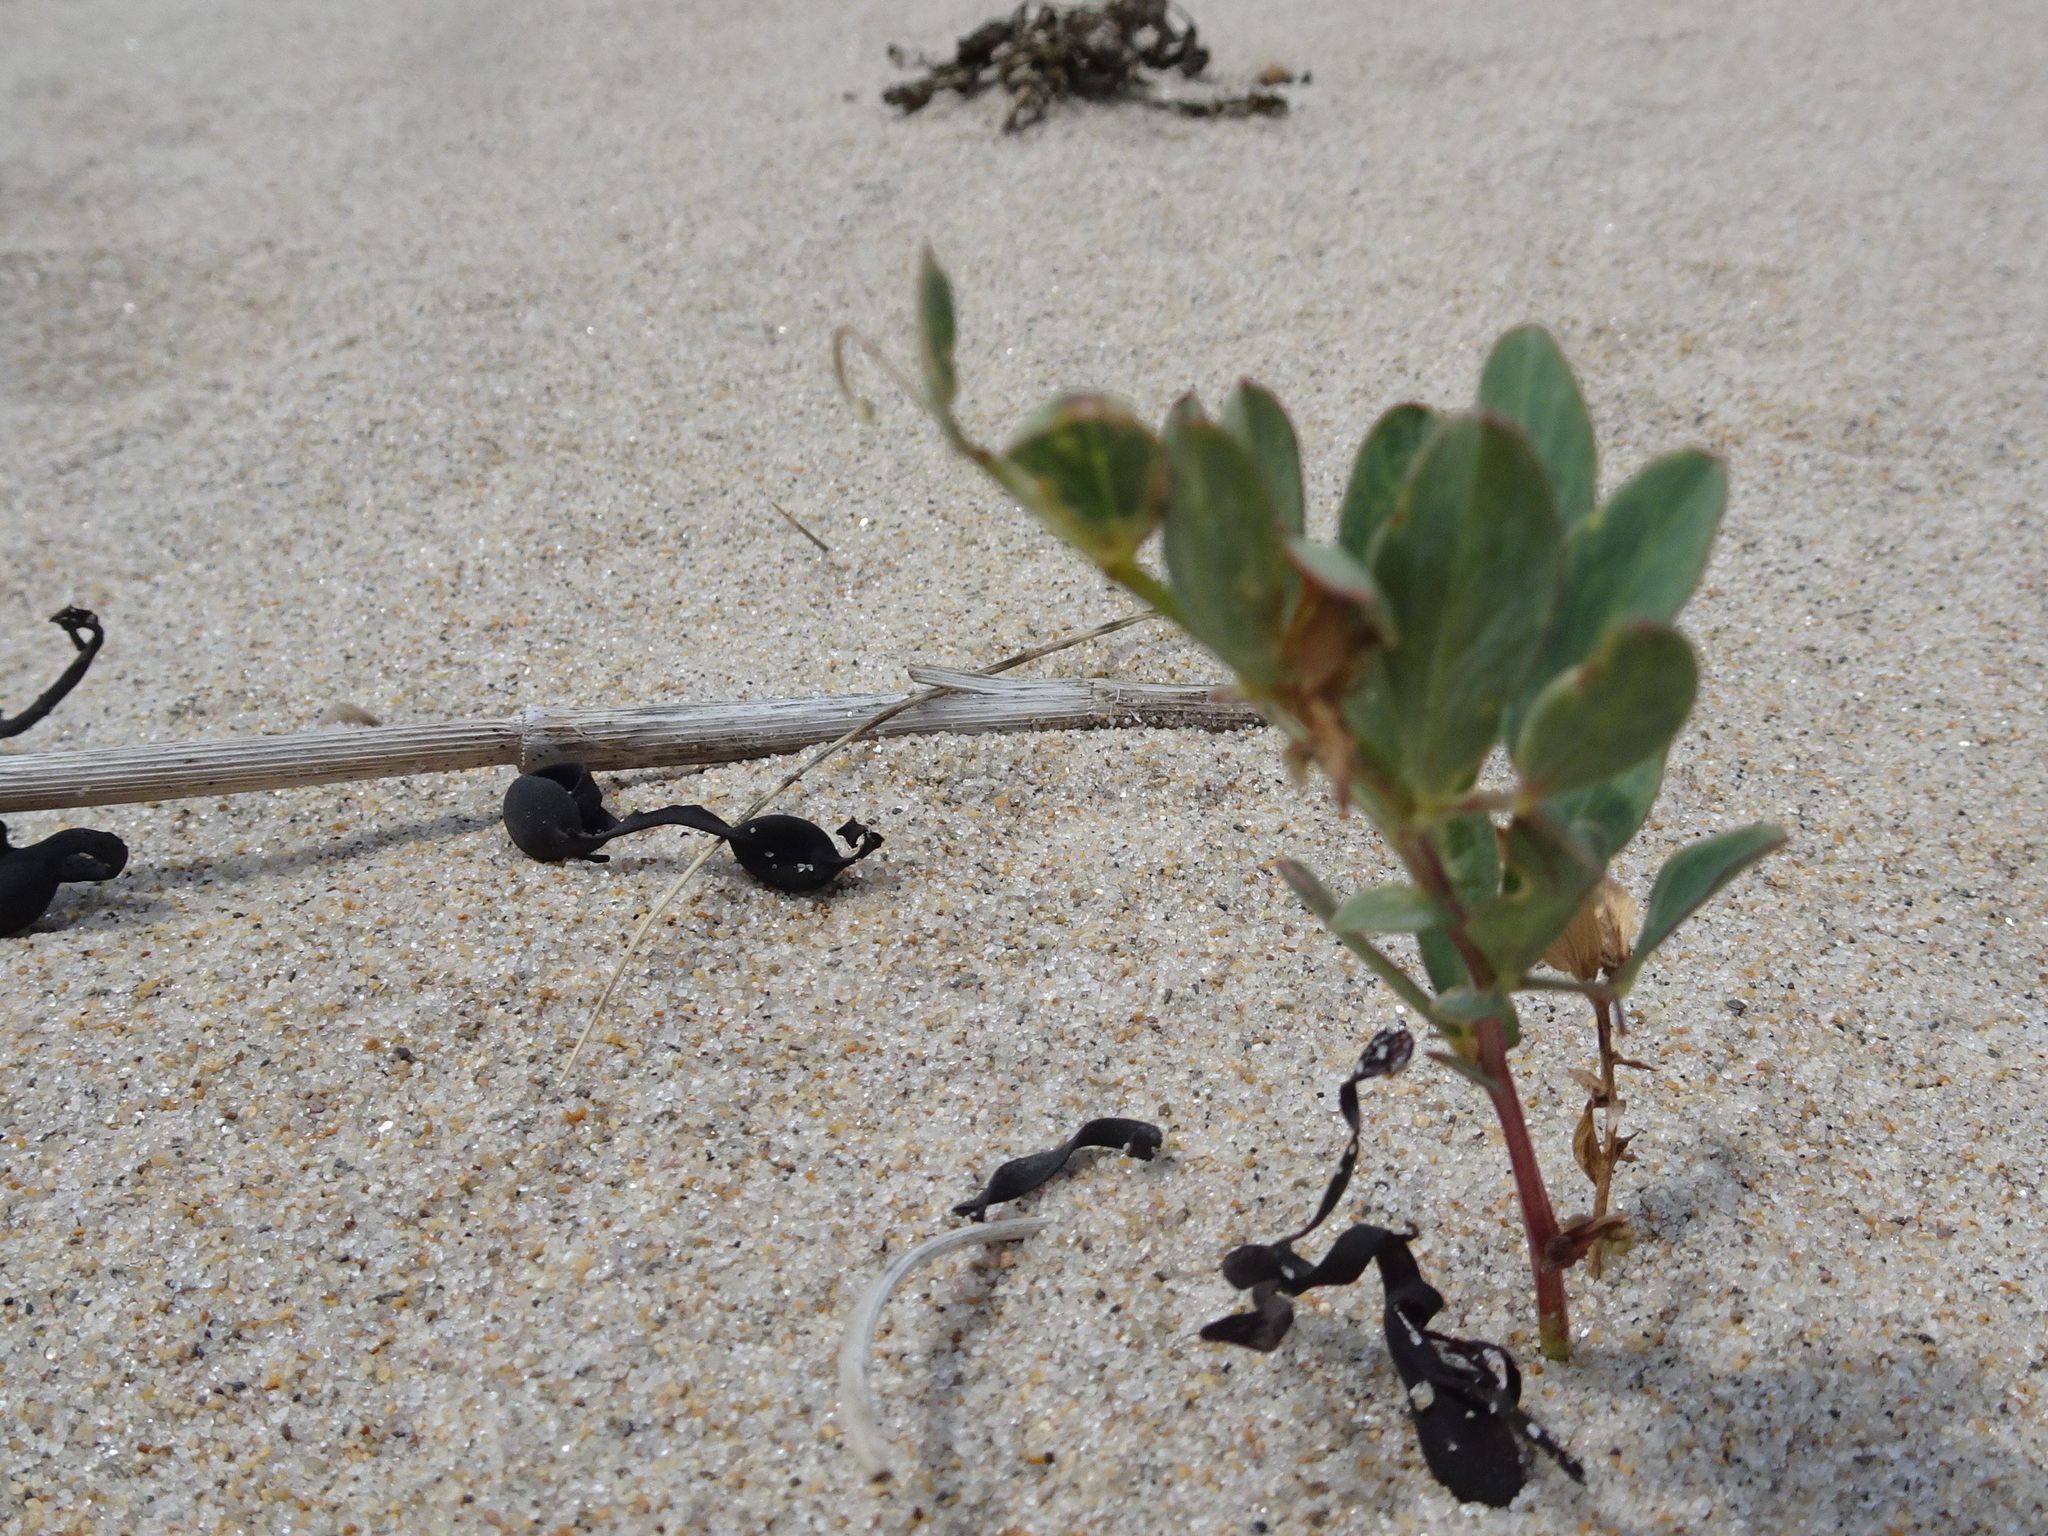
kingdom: Plantae
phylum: Tracheophyta
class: Magnoliopsida
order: Fabales
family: Fabaceae
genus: Lathyrus
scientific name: Lathyrus japonicus
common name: Sea pea
